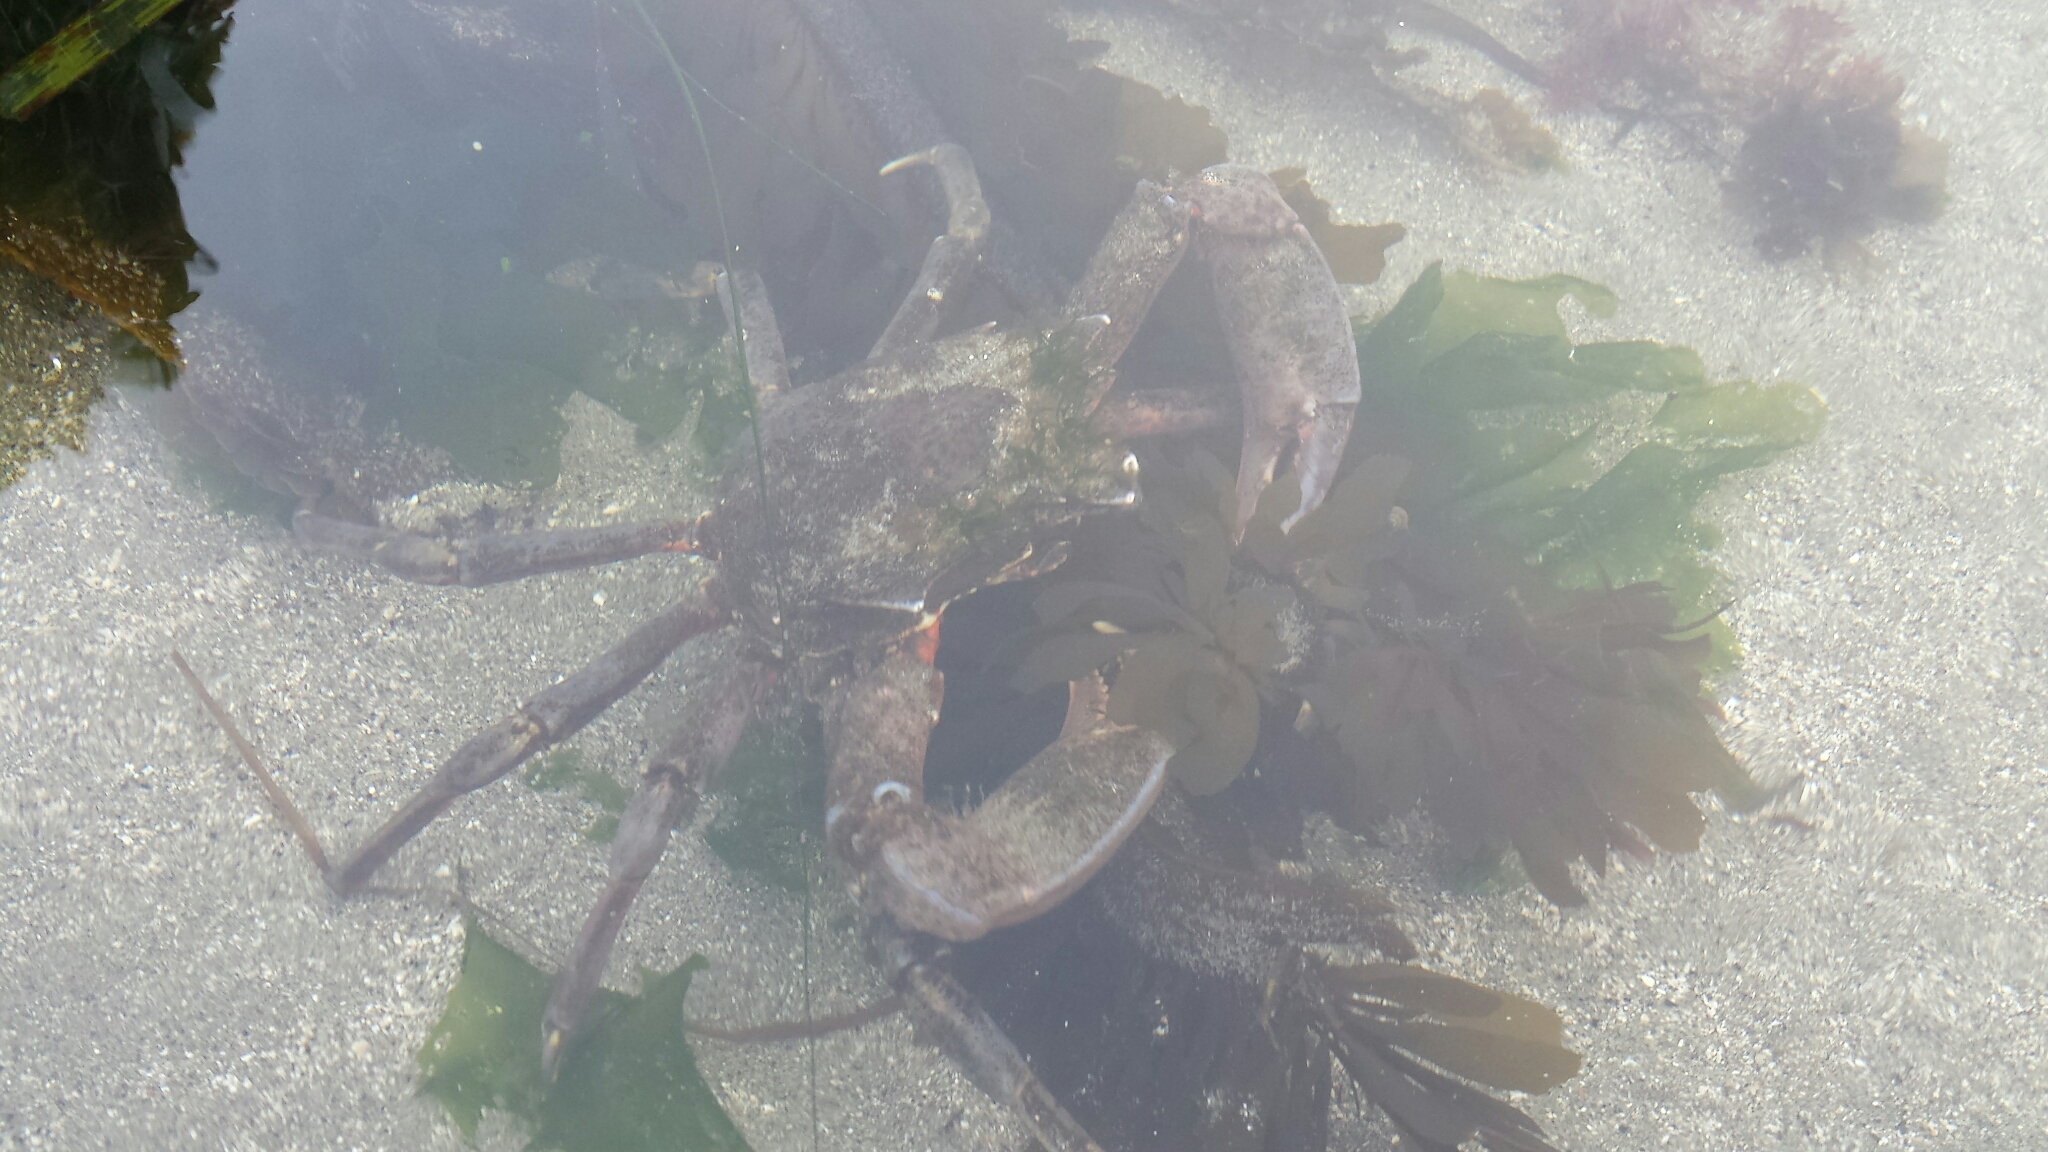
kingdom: Animalia
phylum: Arthropoda
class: Malacostraca
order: Decapoda
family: Epialtidae
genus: Pugettia
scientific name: Pugettia producta
